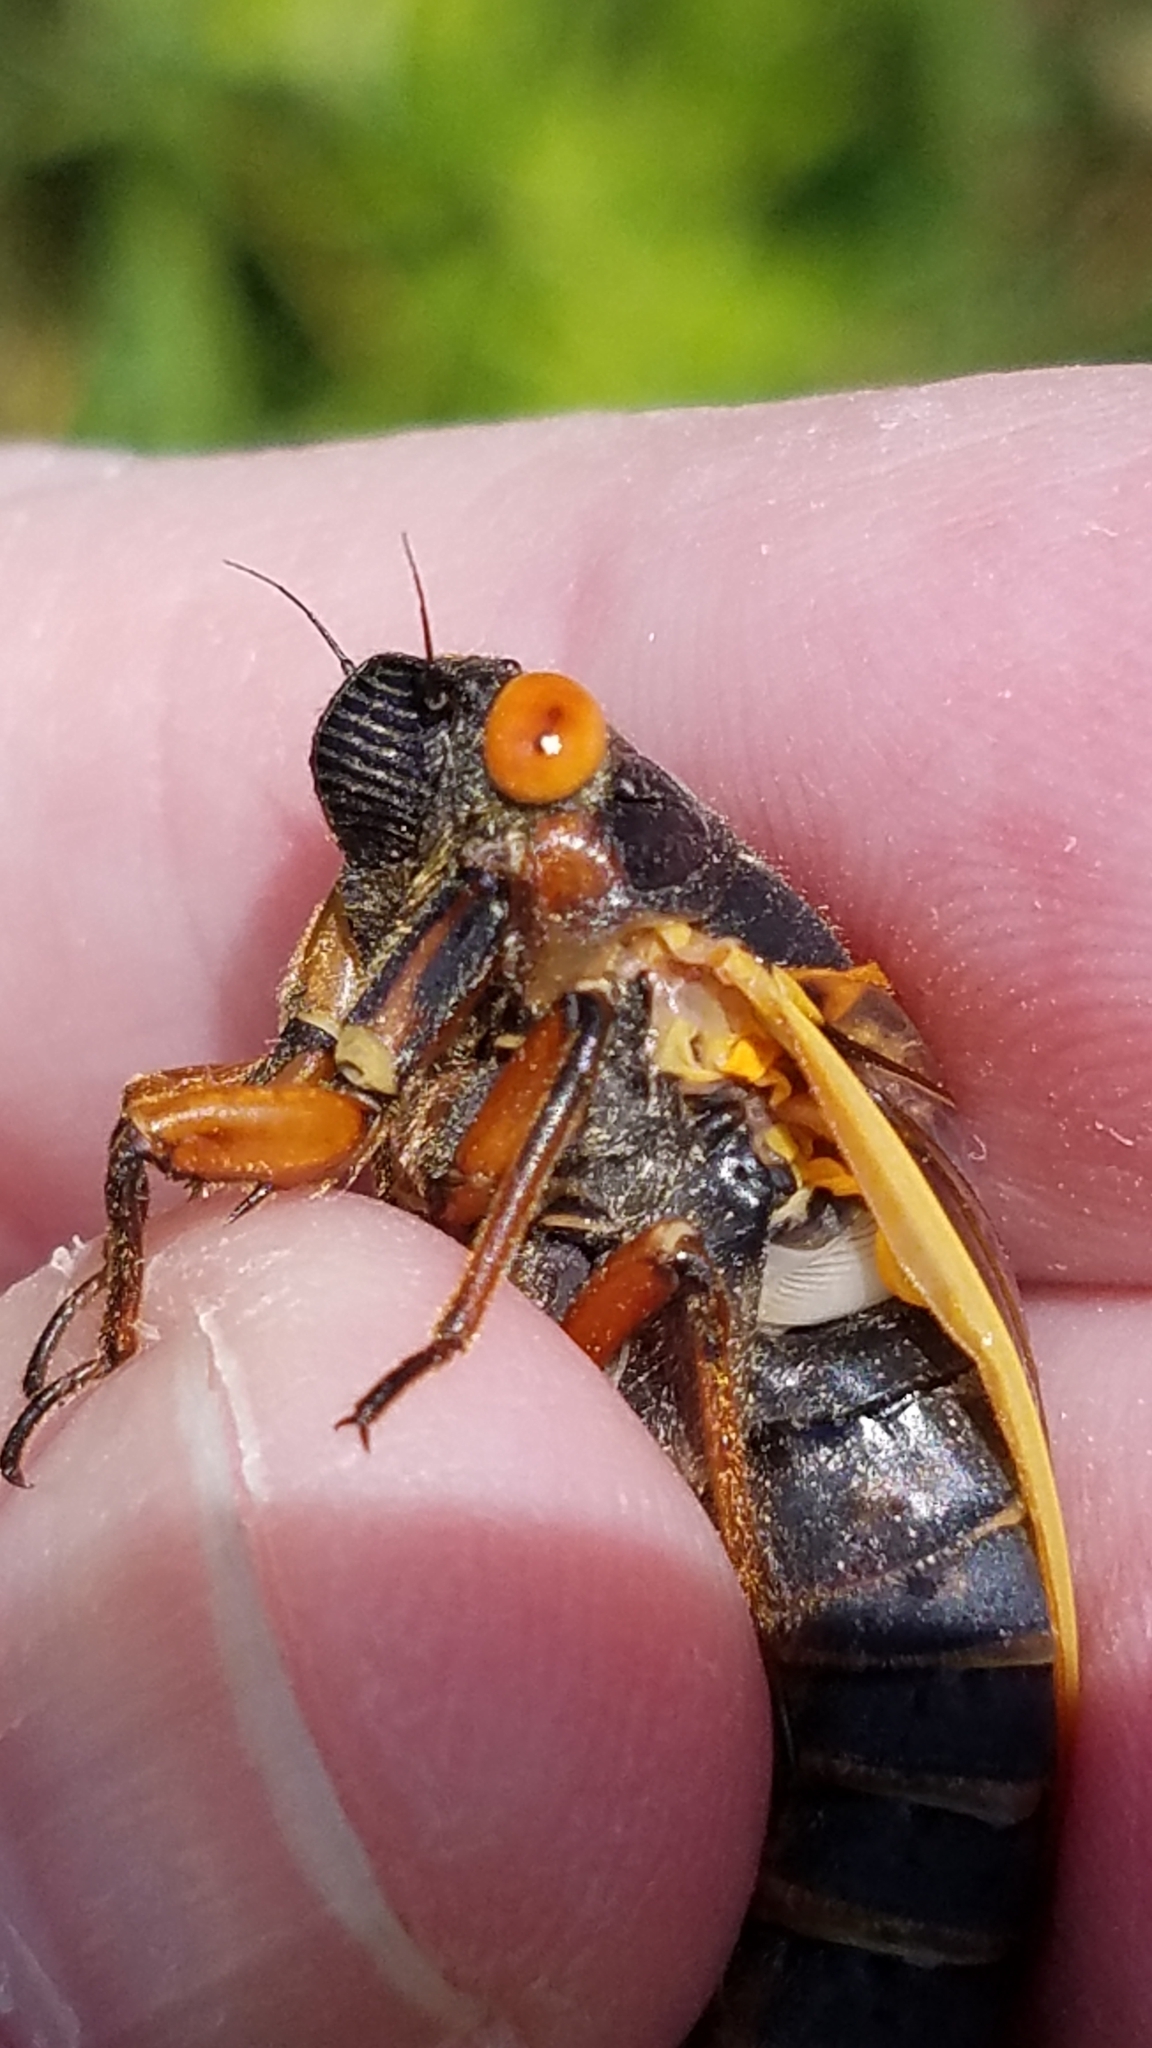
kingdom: Animalia
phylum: Arthropoda
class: Insecta
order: Hemiptera
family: Cicadidae
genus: Magicicada
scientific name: Magicicada septendecim
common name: Periodical cicada
